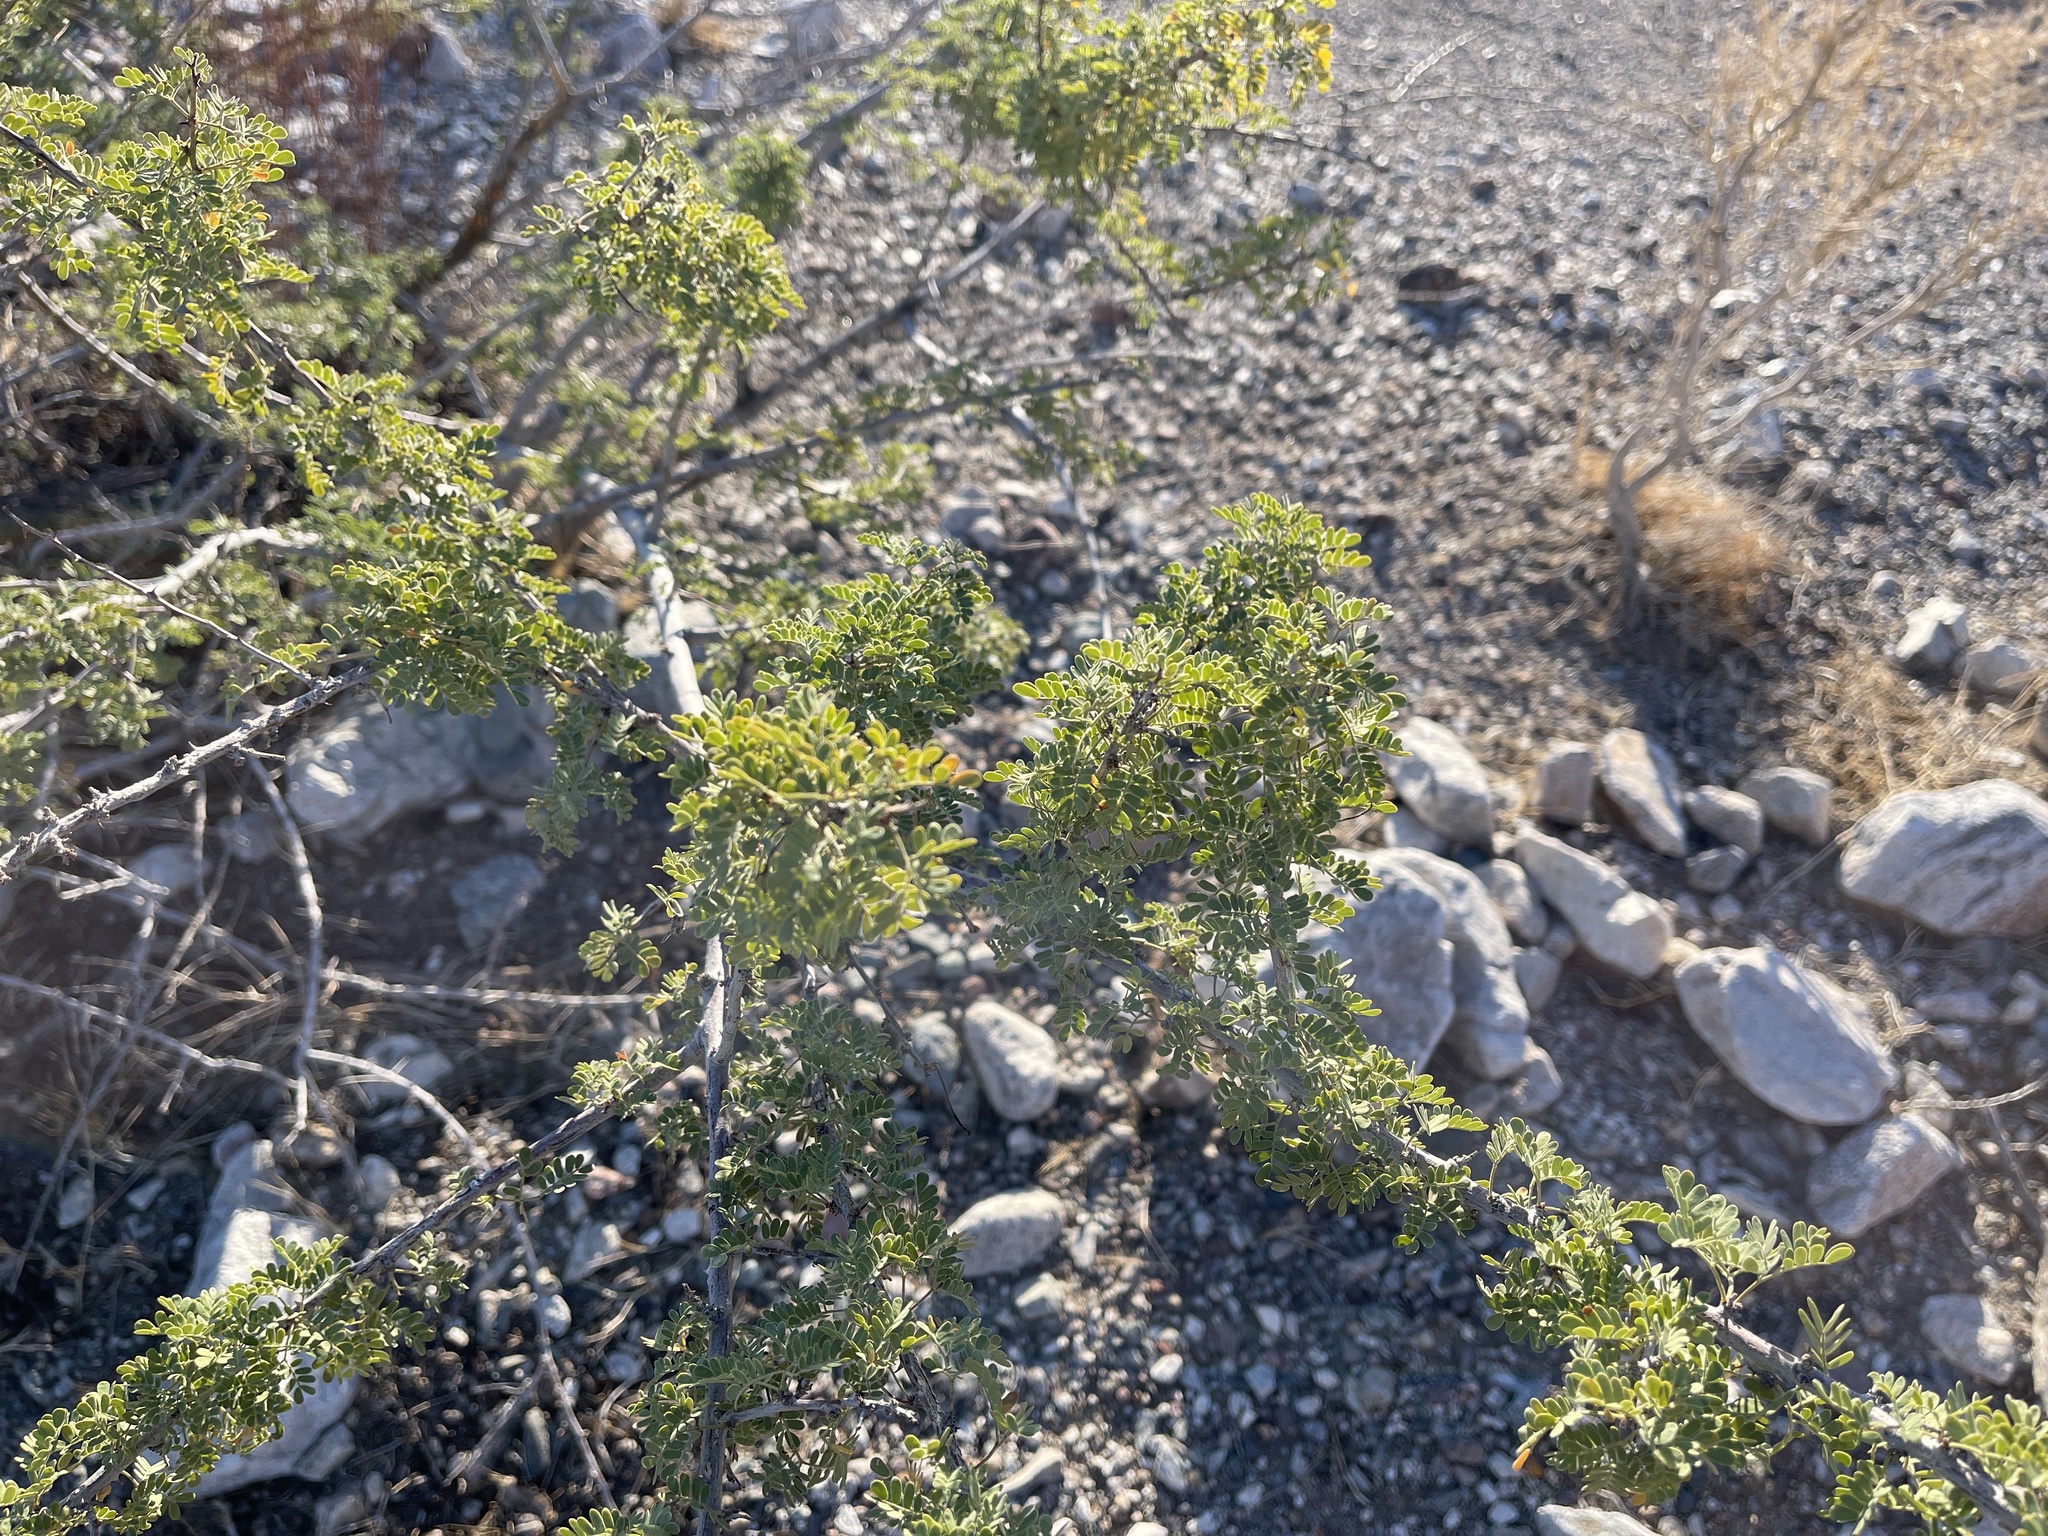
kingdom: Plantae
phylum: Tracheophyta
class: Magnoliopsida
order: Fabales
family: Fabaceae
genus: Senegalia
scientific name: Senegalia greggii
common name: Texas-mimosa
